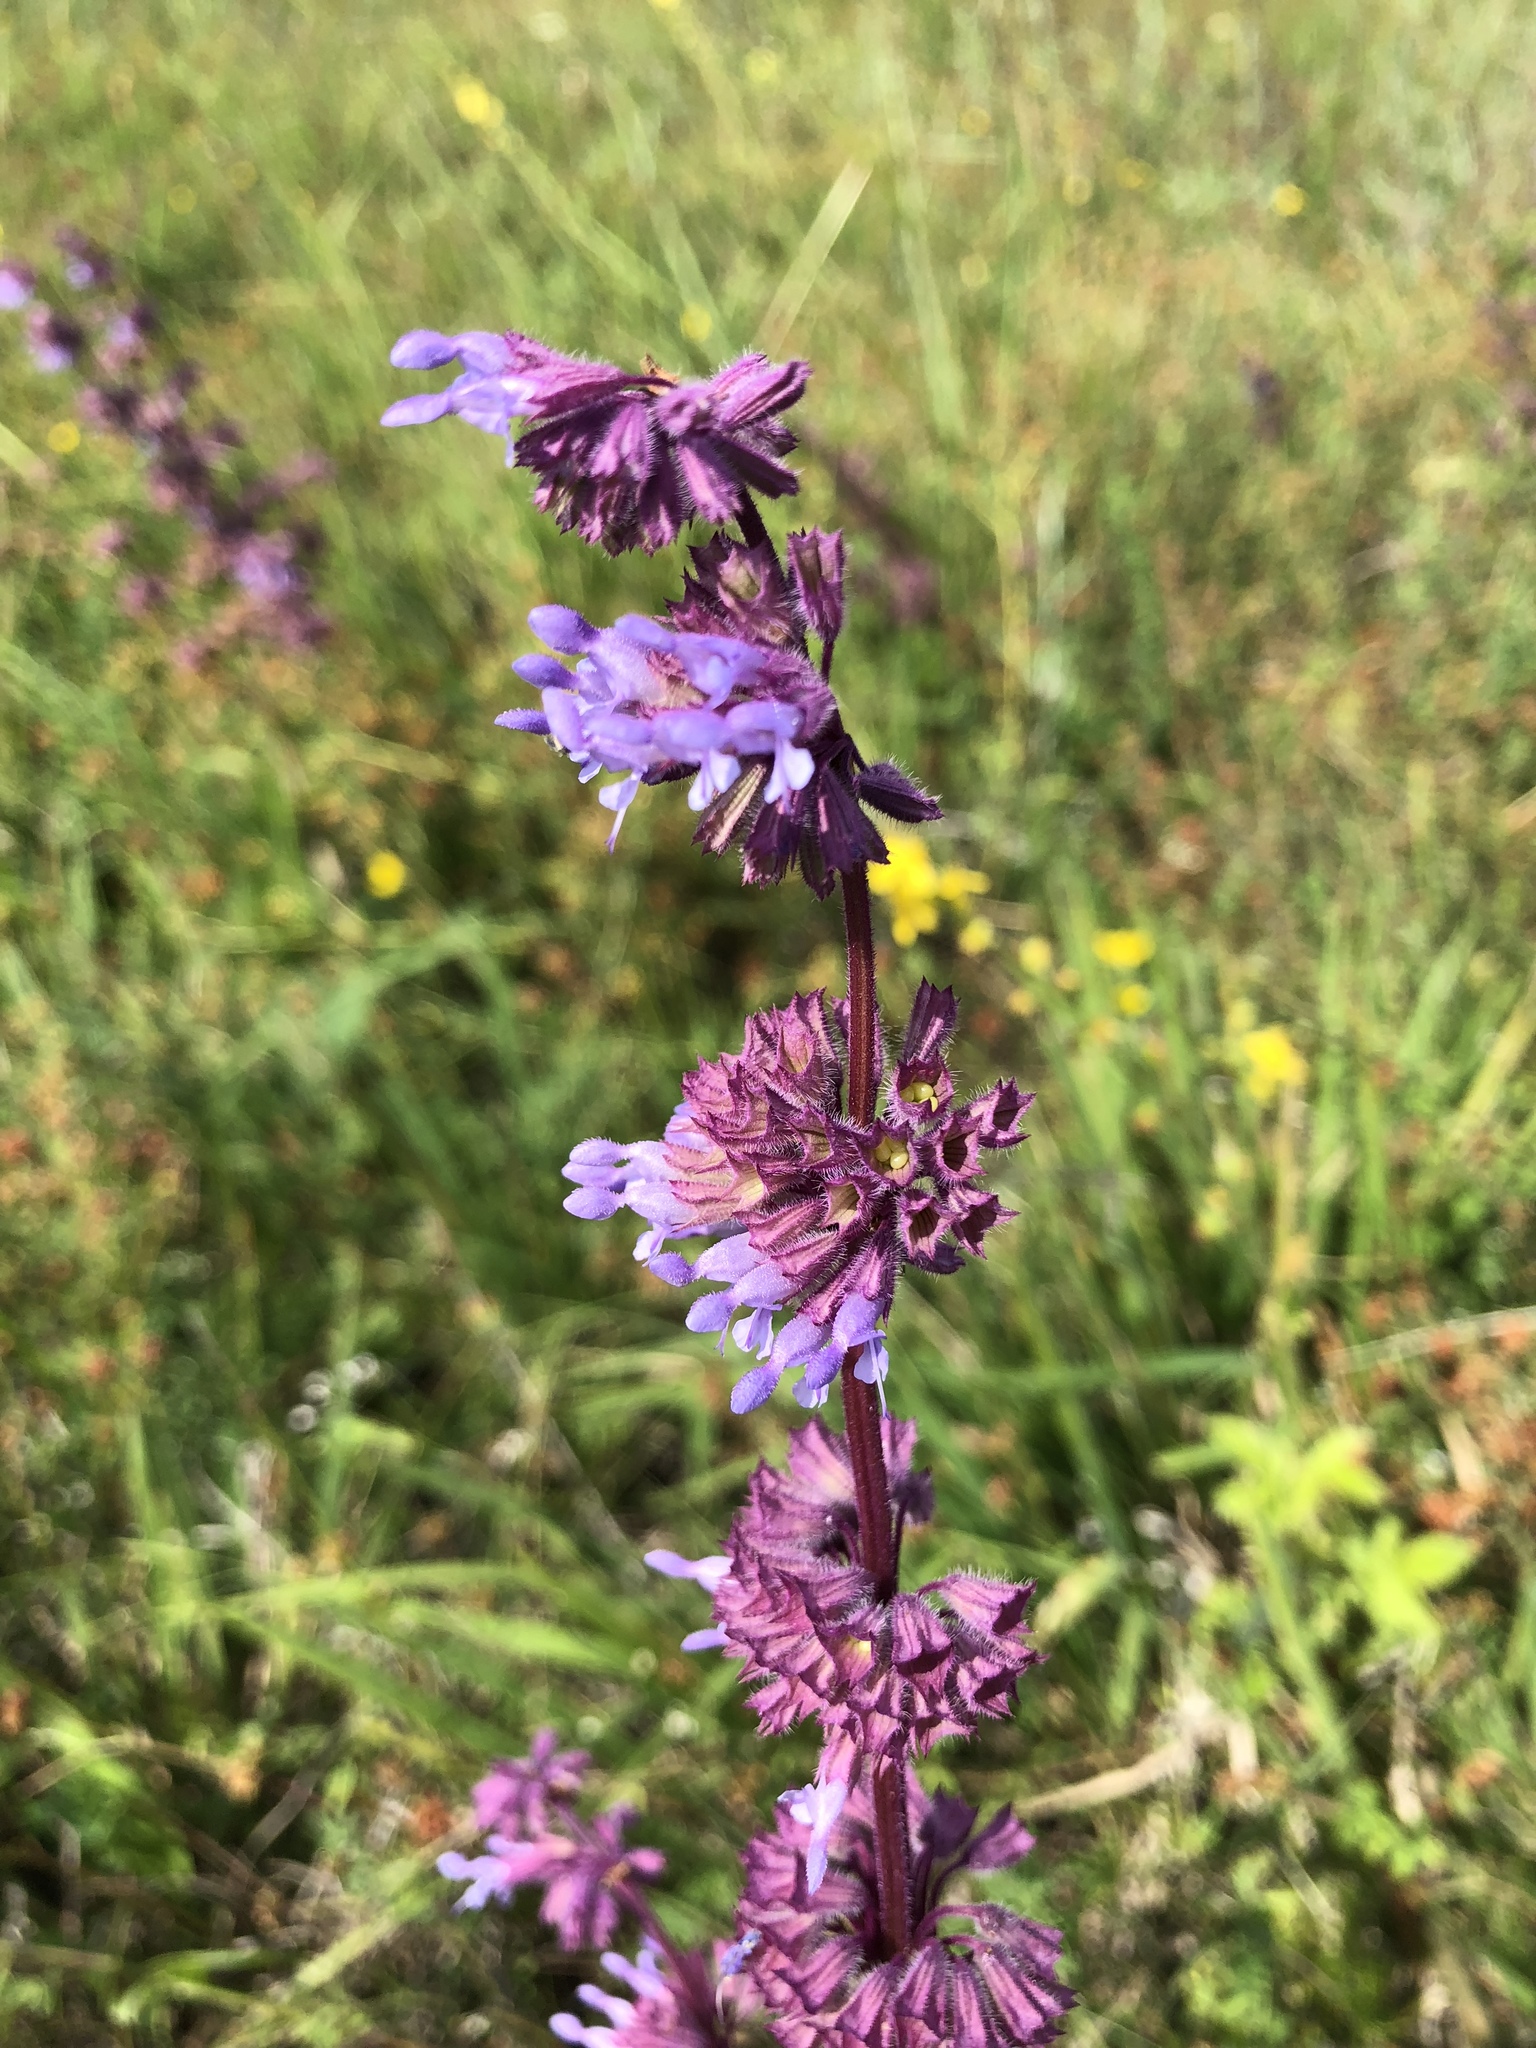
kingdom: Plantae
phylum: Tracheophyta
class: Magnoliopsida
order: Lamiales
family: Lamiaceae
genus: Salvia
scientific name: Salvia verticillata
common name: Whorled clary
